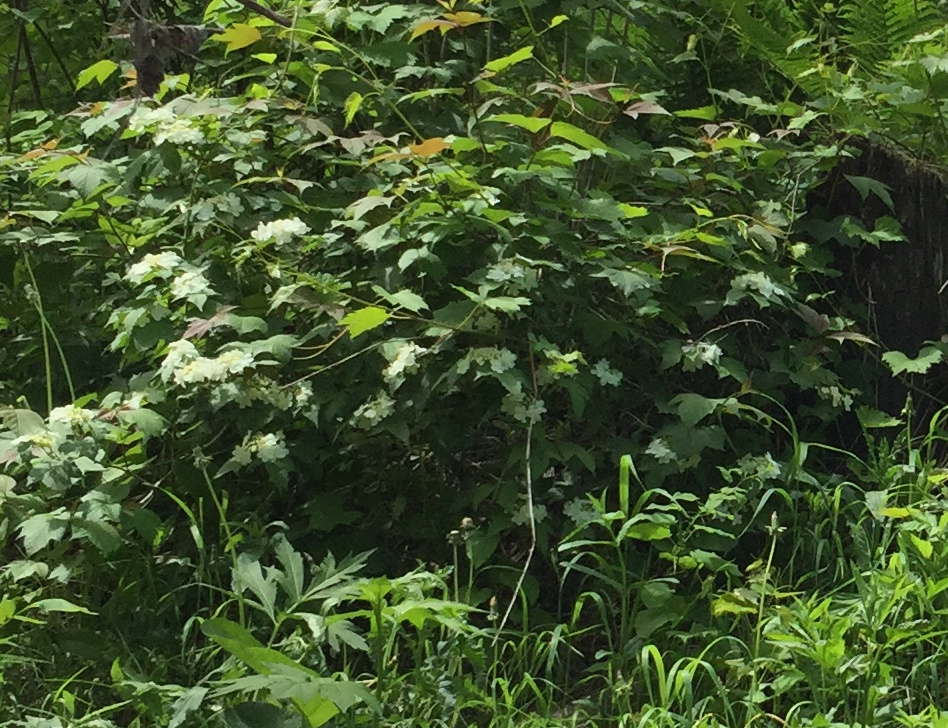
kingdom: Plantae
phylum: Tracheophyta
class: Magnoliopsida
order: Dipsacales
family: Viburnaceae
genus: Viburnum
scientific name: Viburnum trilobum
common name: American cranberrybush
